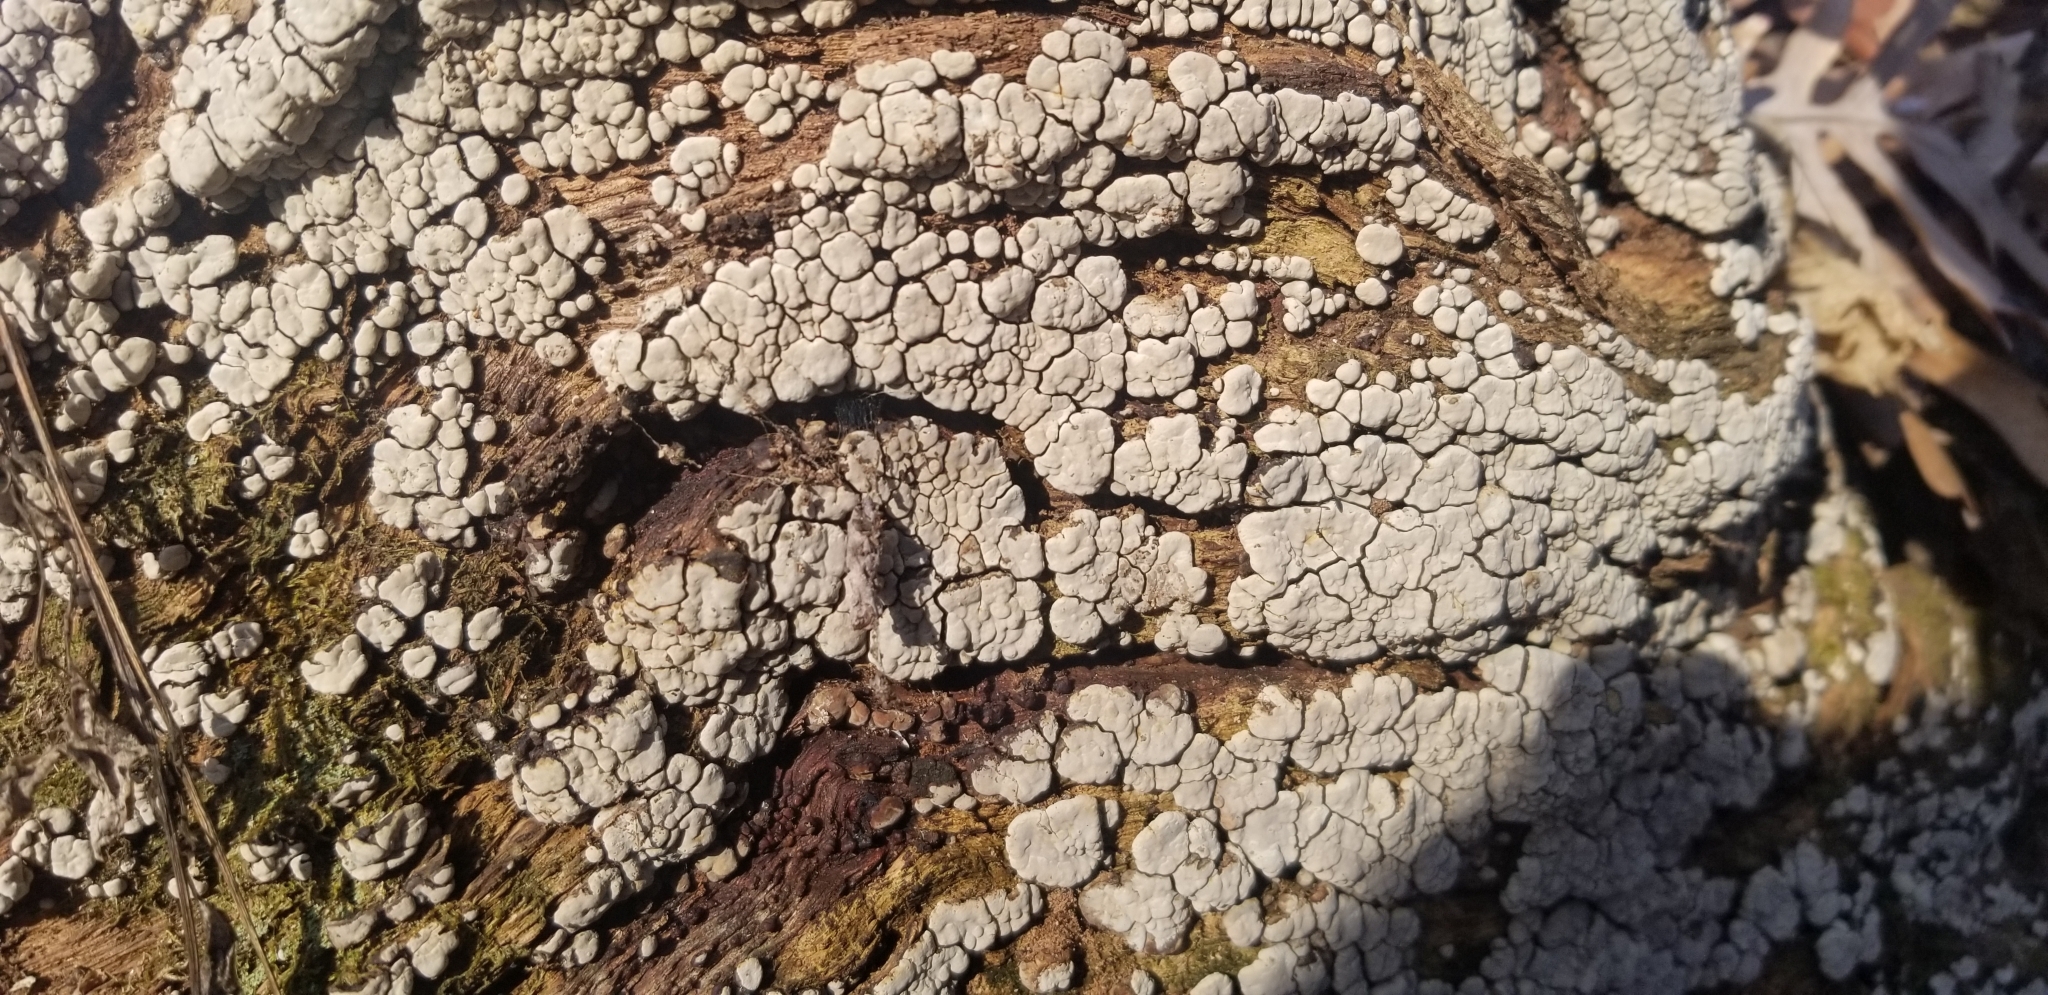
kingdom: Fungi
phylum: Basidiomycota
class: Agaricomycetes
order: Russulales
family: Stereaceae
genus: Xylobolus
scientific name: Xylobolus frustulatus
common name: Ceramic parchment
